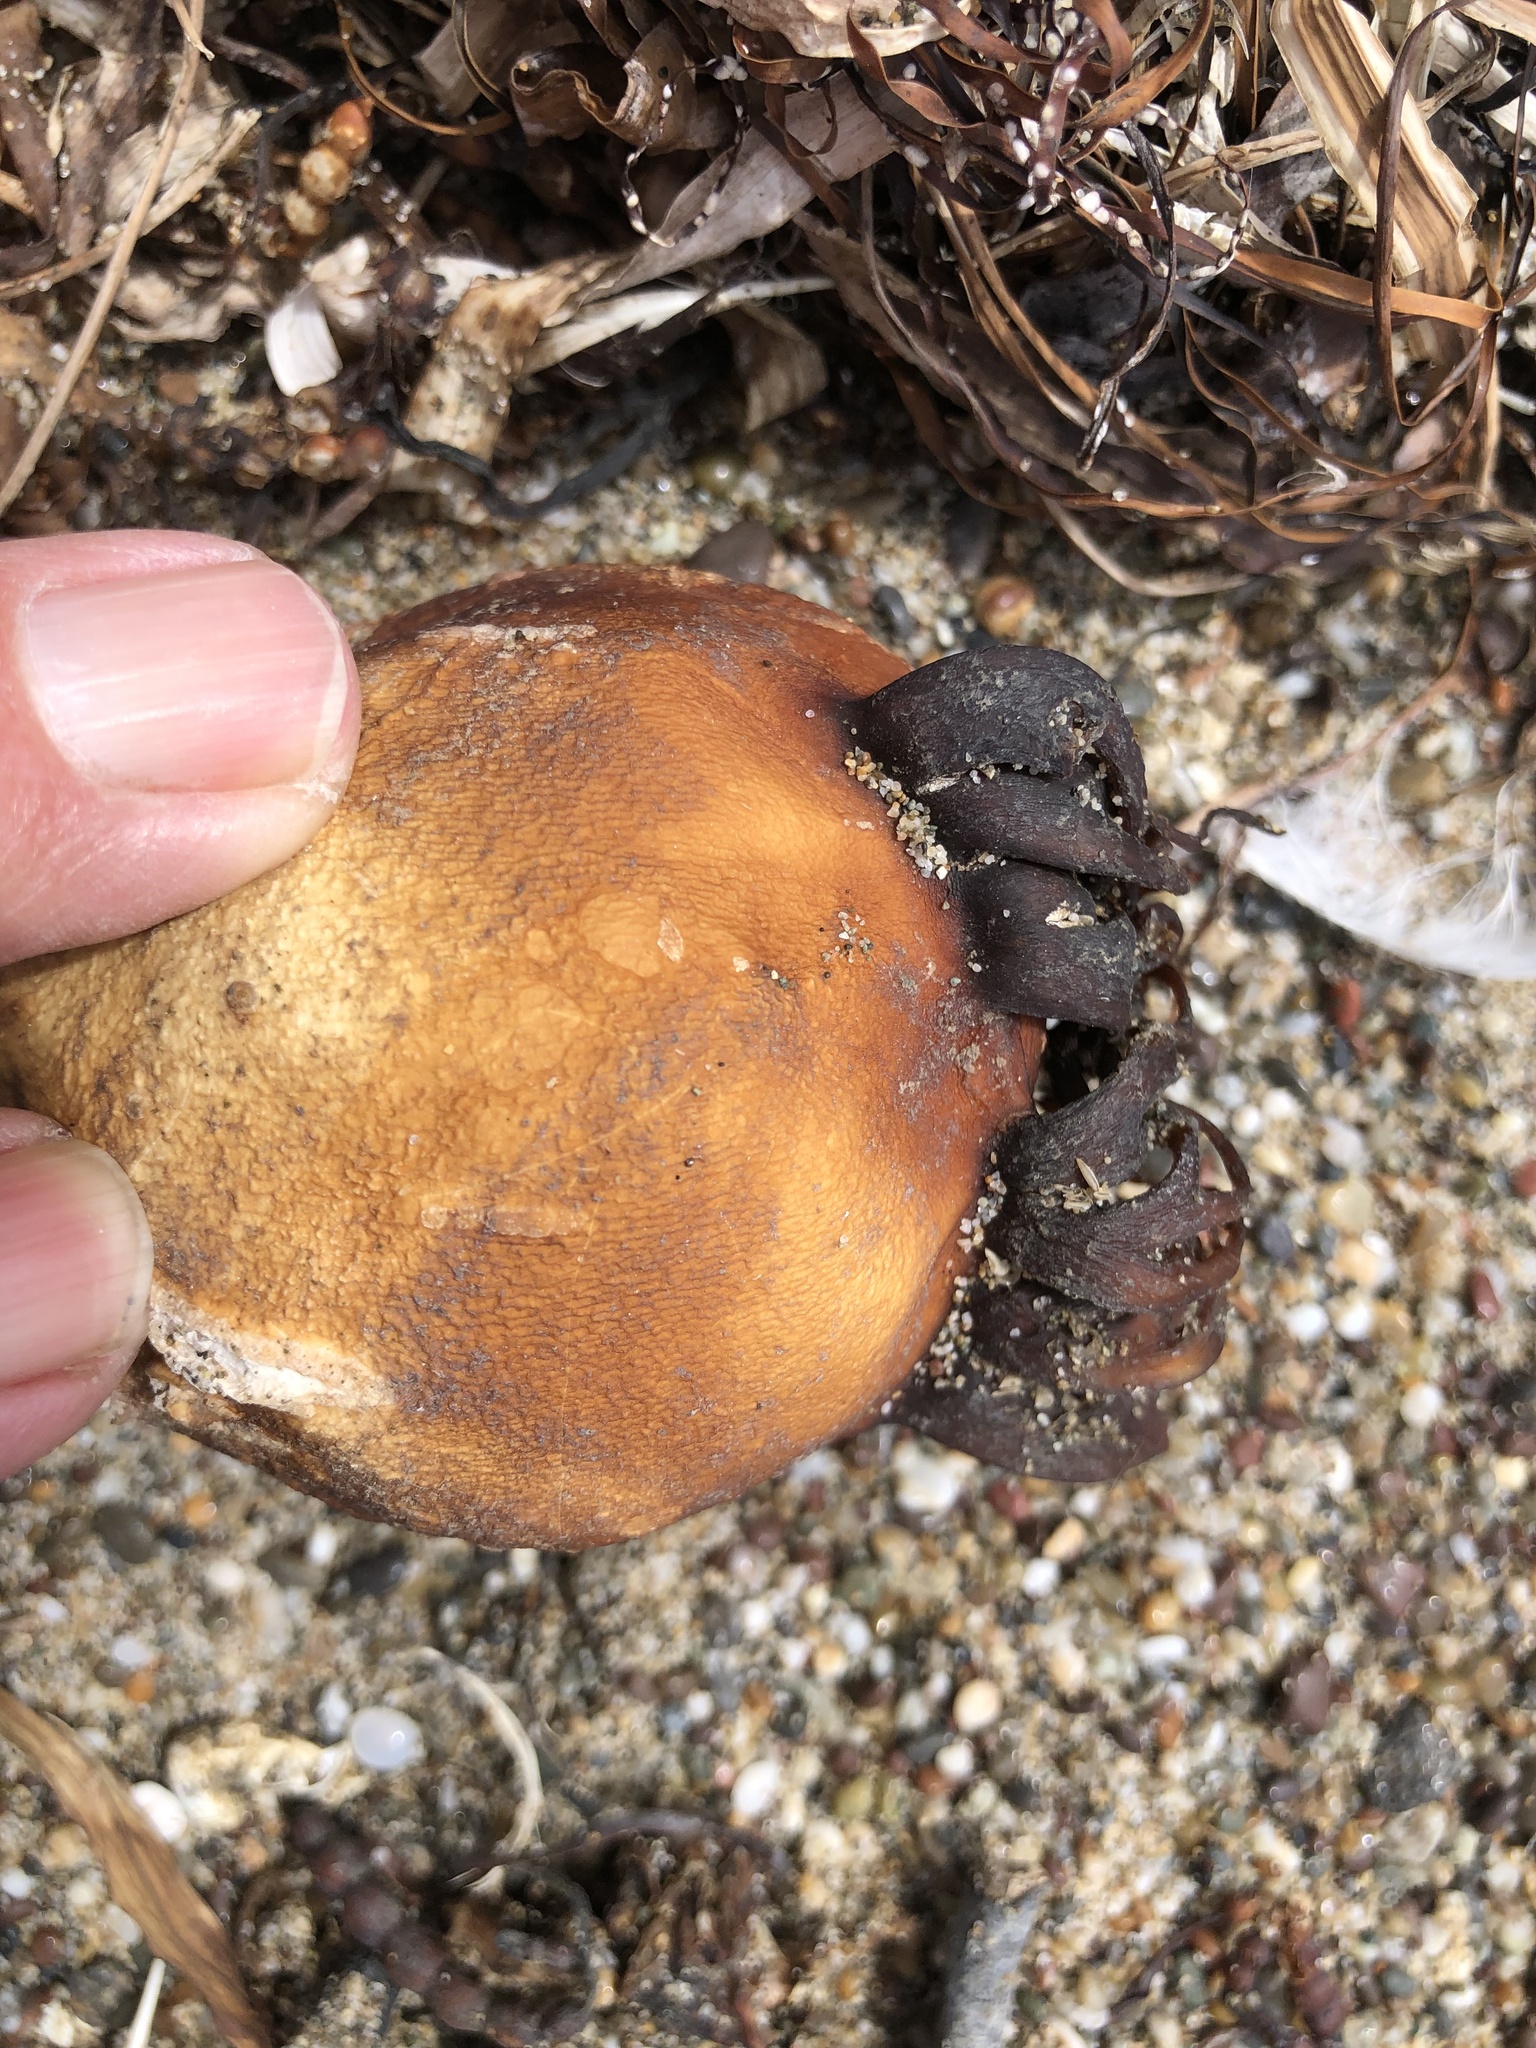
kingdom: Chromista
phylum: Ochrophyta
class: Phaeophyceae
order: Laminariales
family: Laminariaceae
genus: Nereocystis
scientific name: Nereocystis luetkeana
